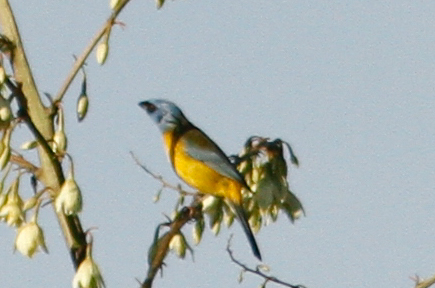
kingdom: Animalia
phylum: Chordata
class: Aves
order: Passeriformes
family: Thraupidae
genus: Rauenia
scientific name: Rauenia bonariensis
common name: Blue-and-yellow tanager
